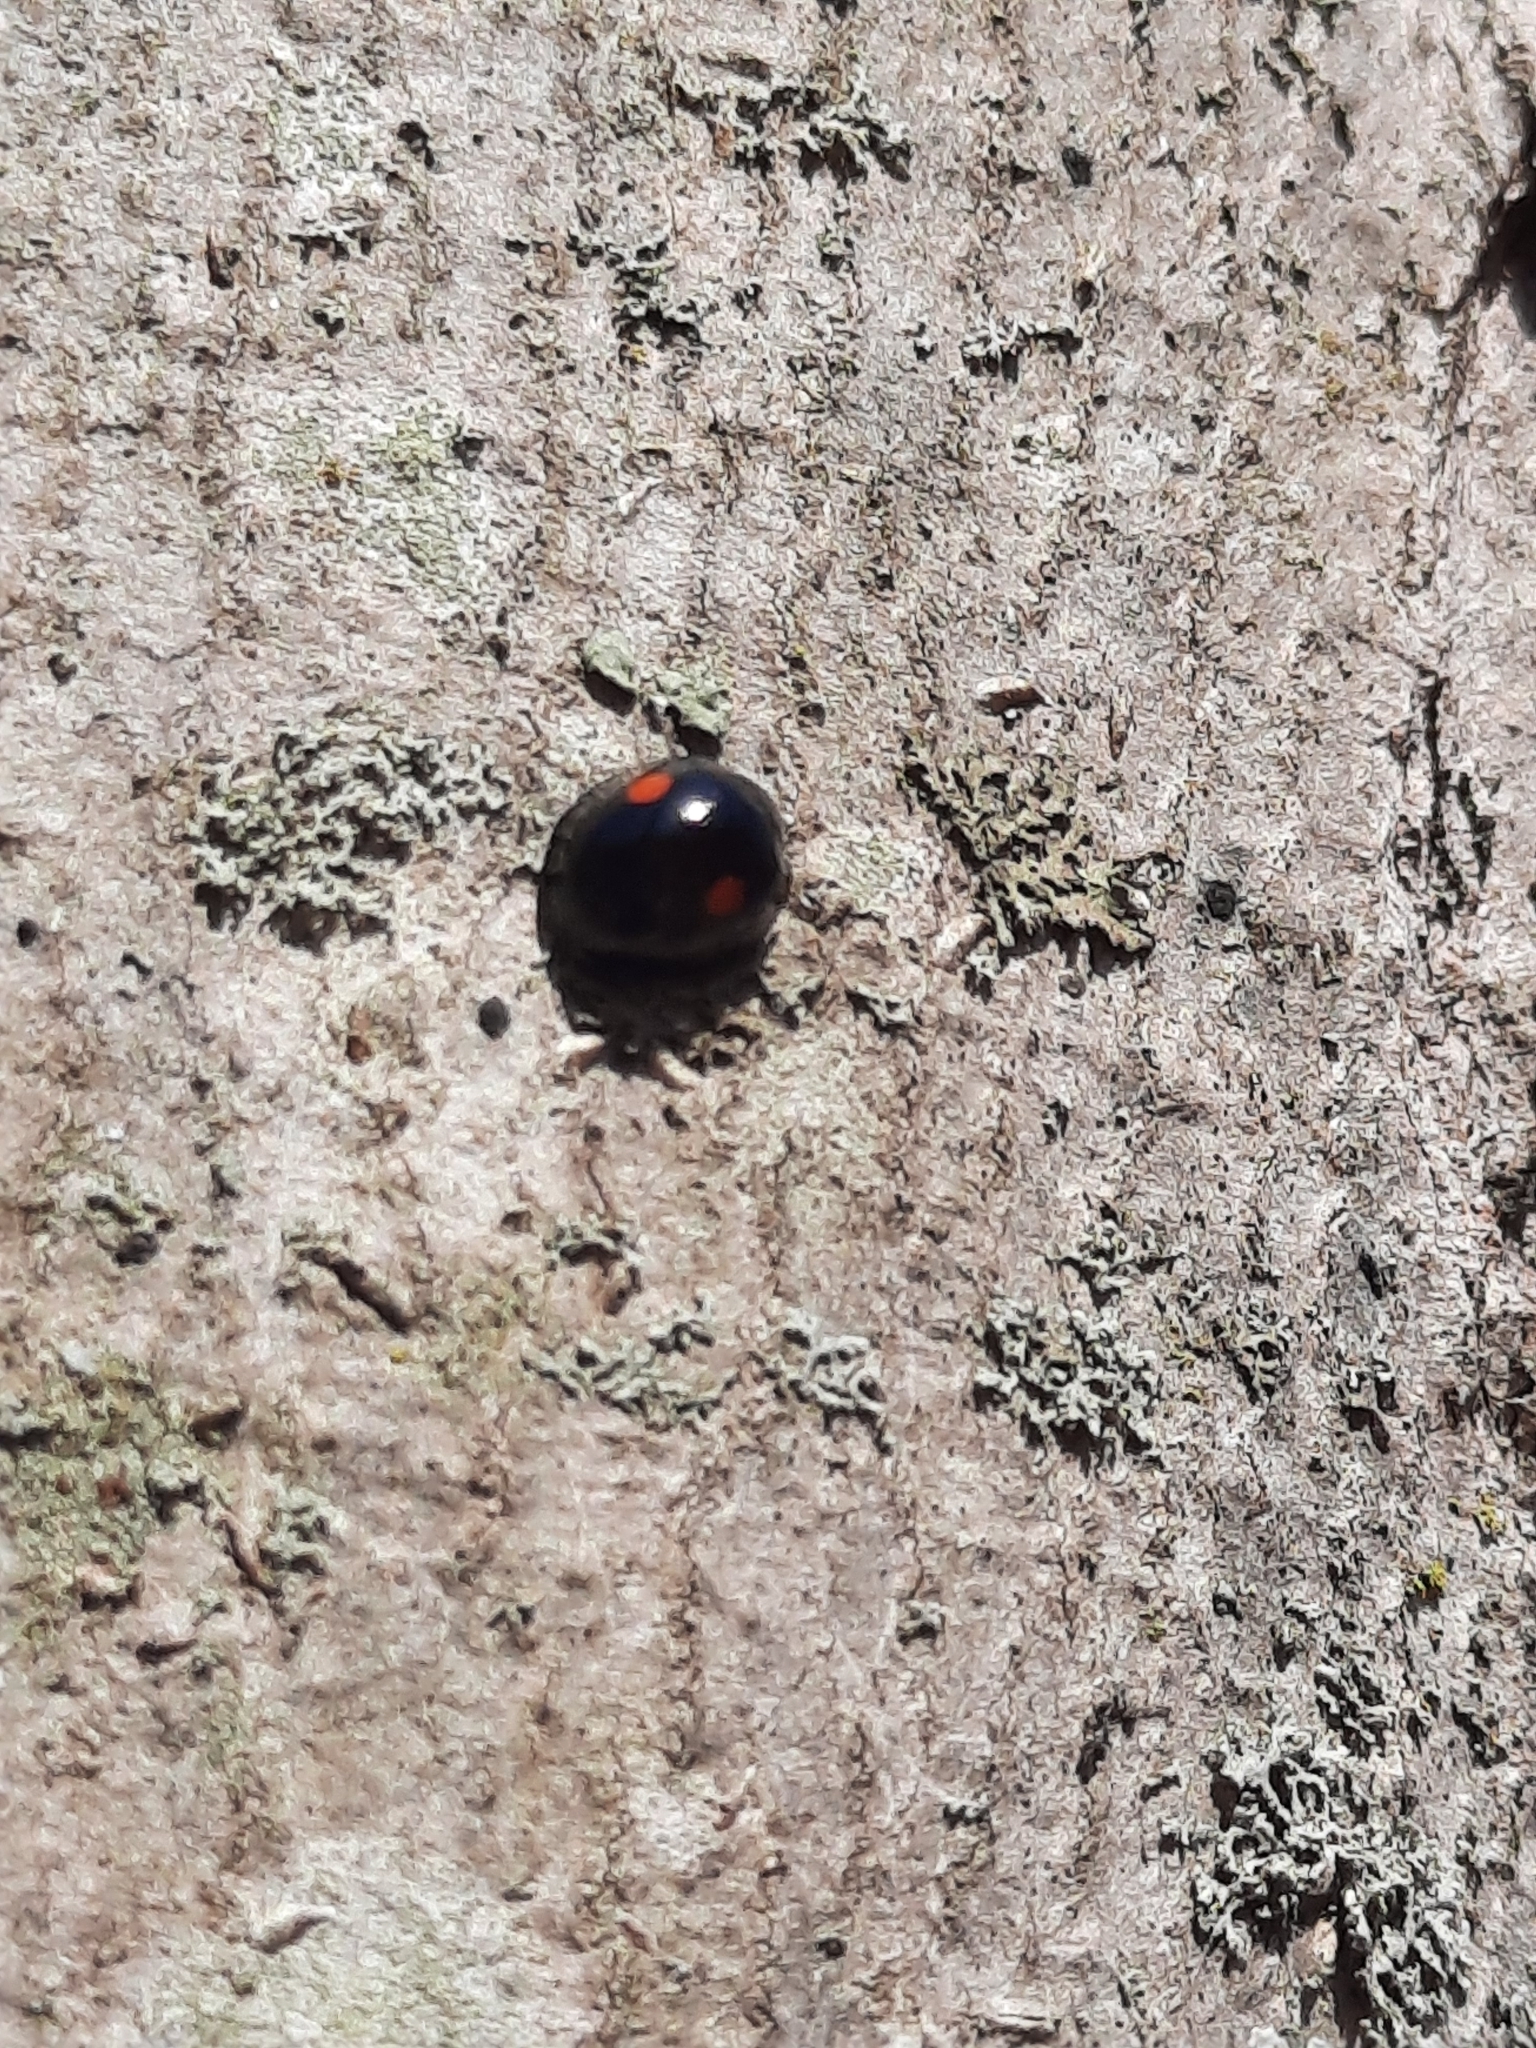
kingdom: Animalia
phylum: Arthropoda
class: Insecta
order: Coleoptera
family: Coccinellidae
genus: Chilocorus
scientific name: Chilocorus stigma
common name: Twicestabbed lady beetle
